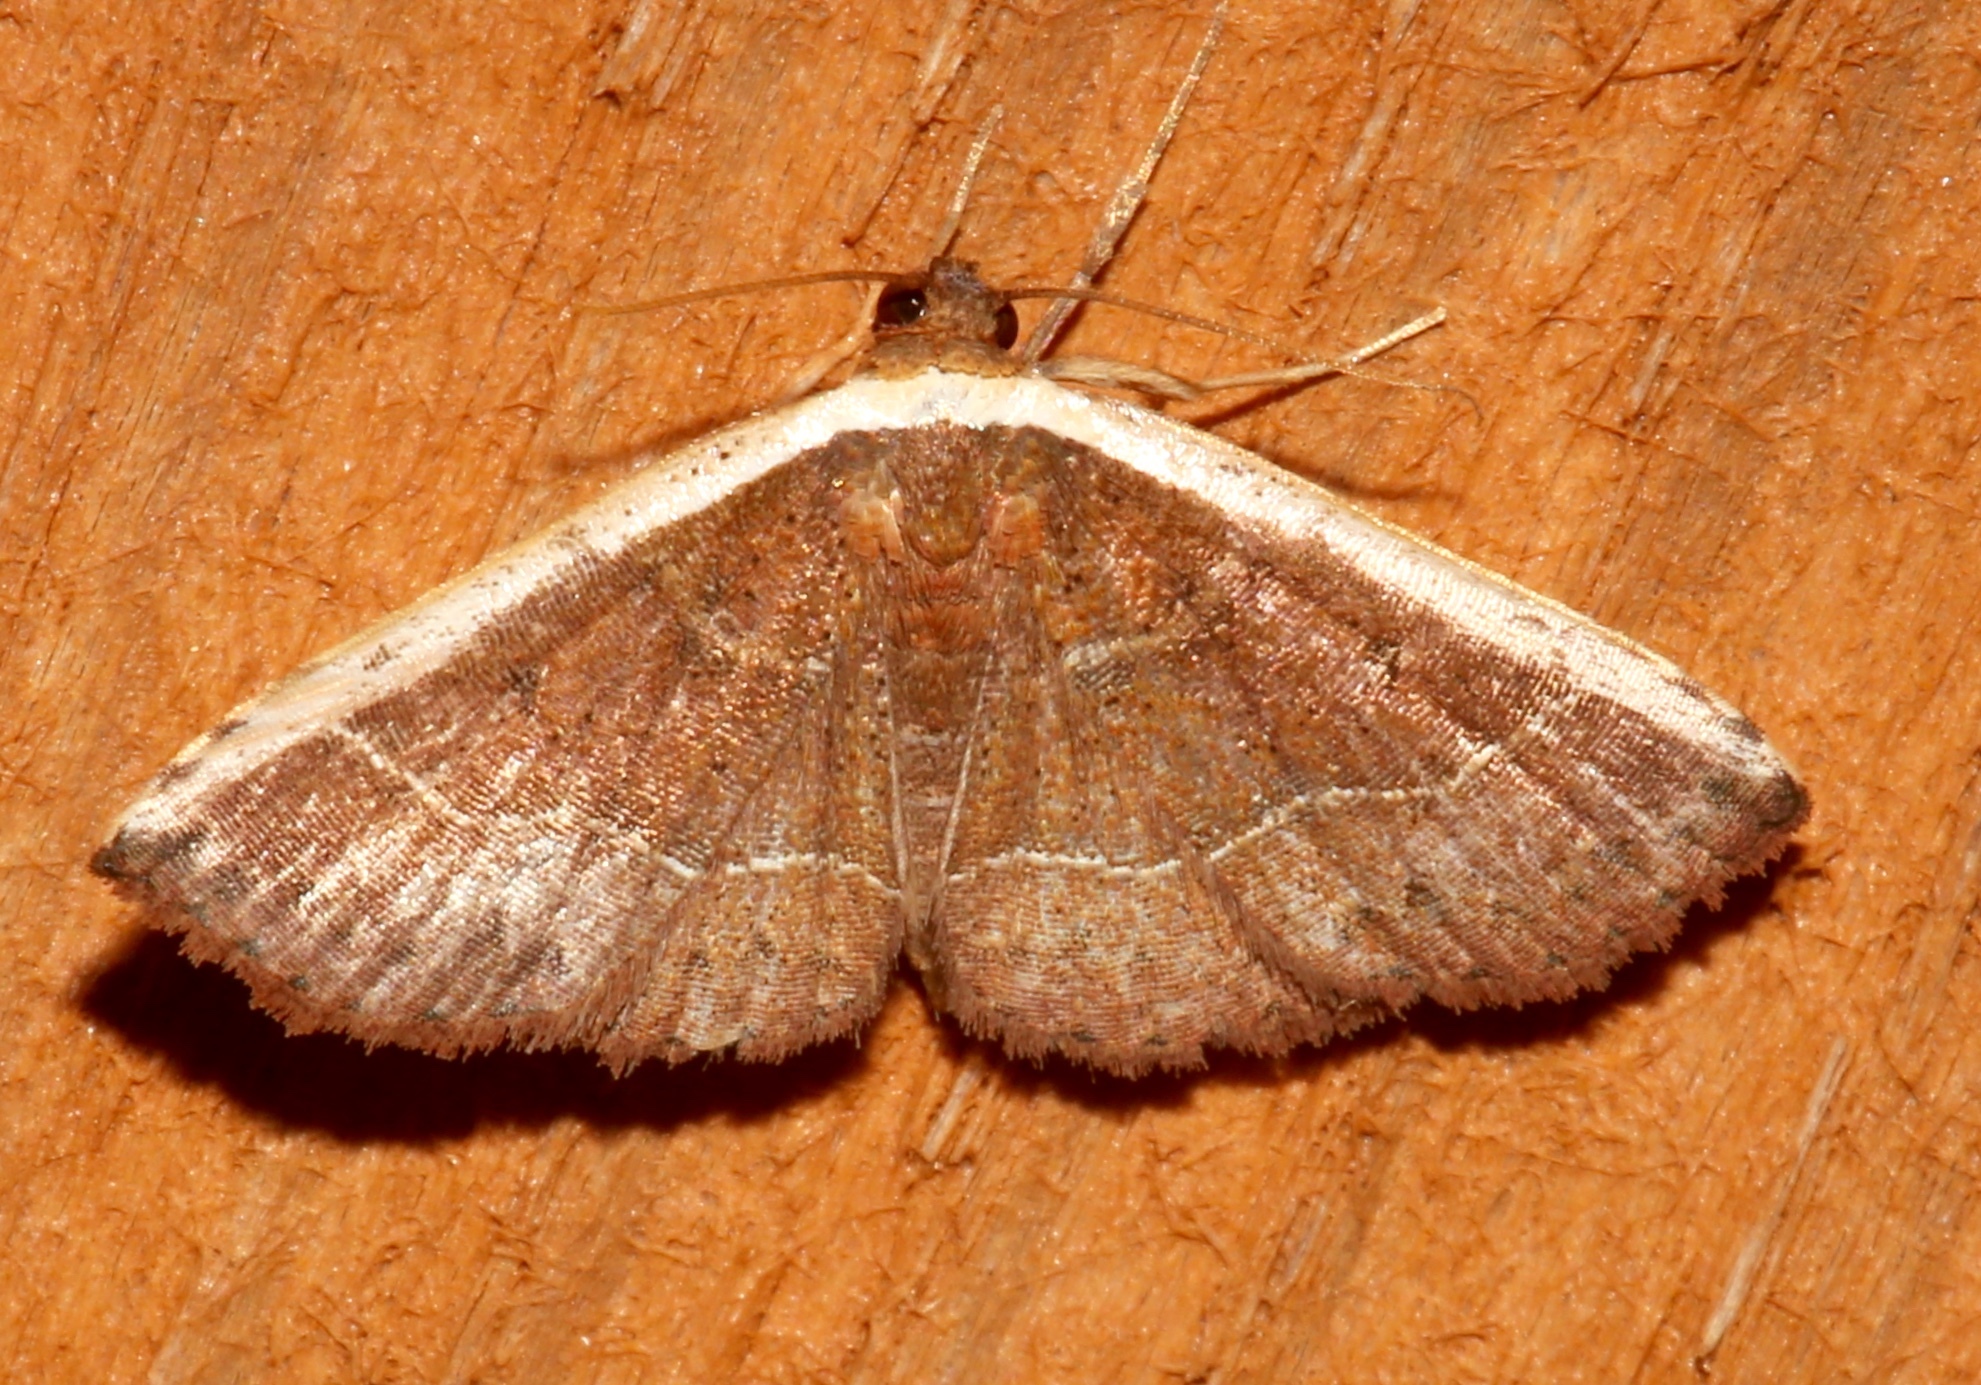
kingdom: Animalia
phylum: Arthropoda
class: Insecta
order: Lepidoptera
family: Noctuidae
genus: Ozarba
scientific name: Ozarba albocostaliata
